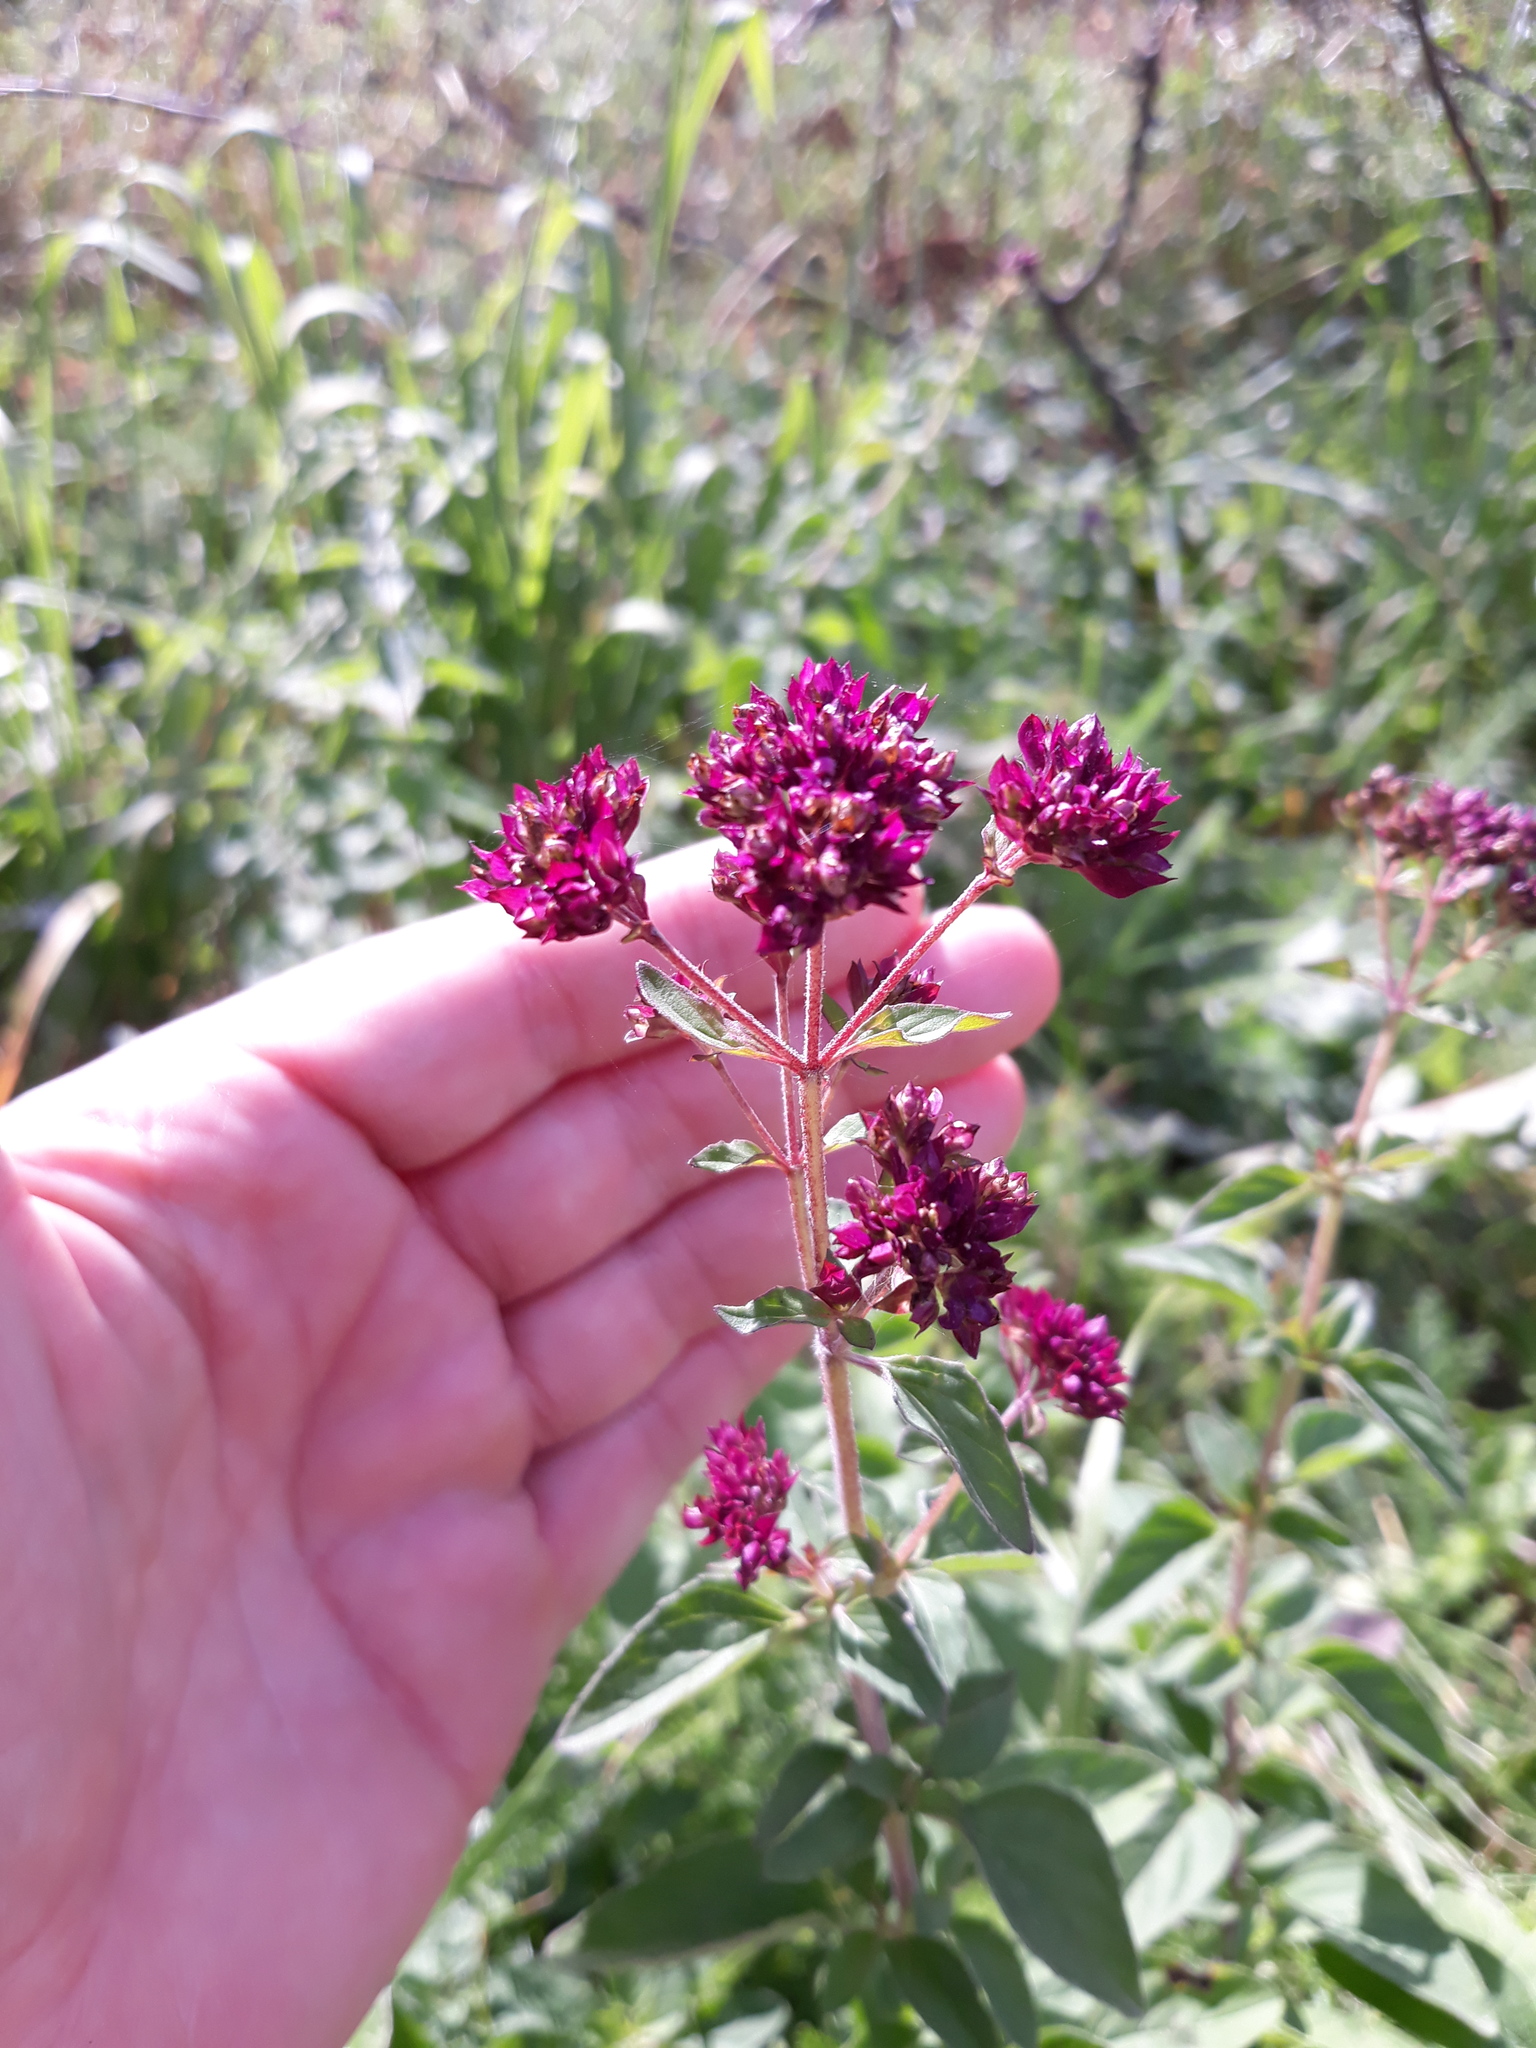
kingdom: Plantae
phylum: Tracheophyta
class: Magnoliopsida
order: Lamiales
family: Lamiaceae
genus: Origanum
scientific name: Origanum vulgare
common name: Wild marjoram
